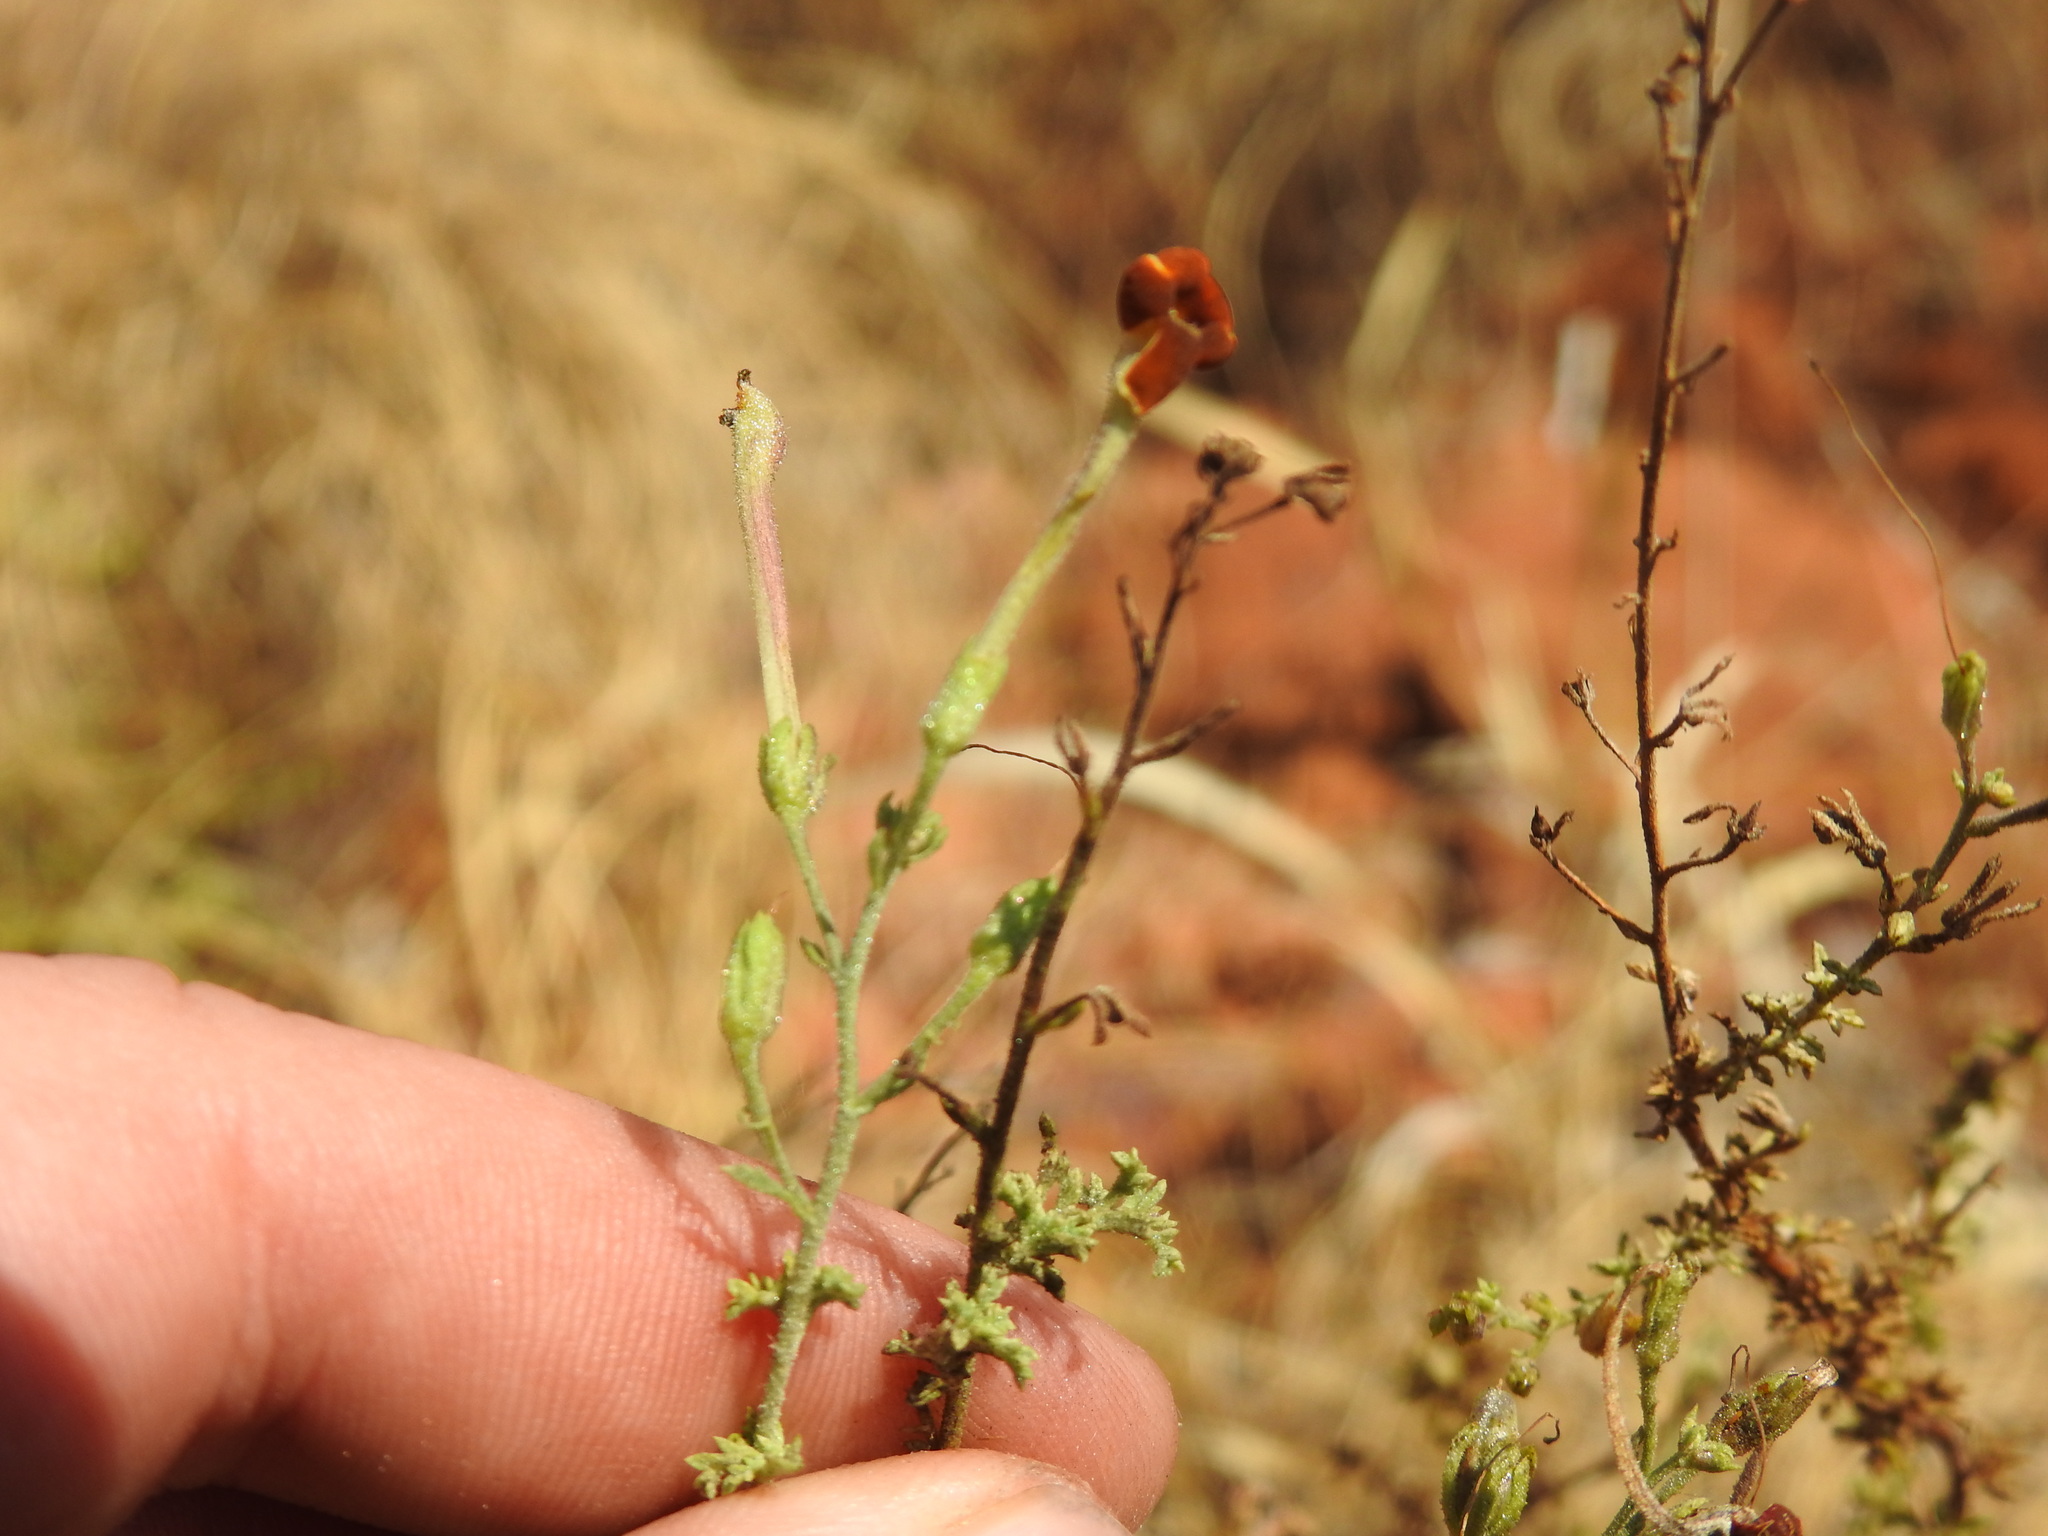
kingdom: Plantae
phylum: Tracheophyta
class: Magnoliopsida
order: Lamiales
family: Scrophulariaceae
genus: Jamesbrittenia
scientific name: Jamesbrittenia burkeana
